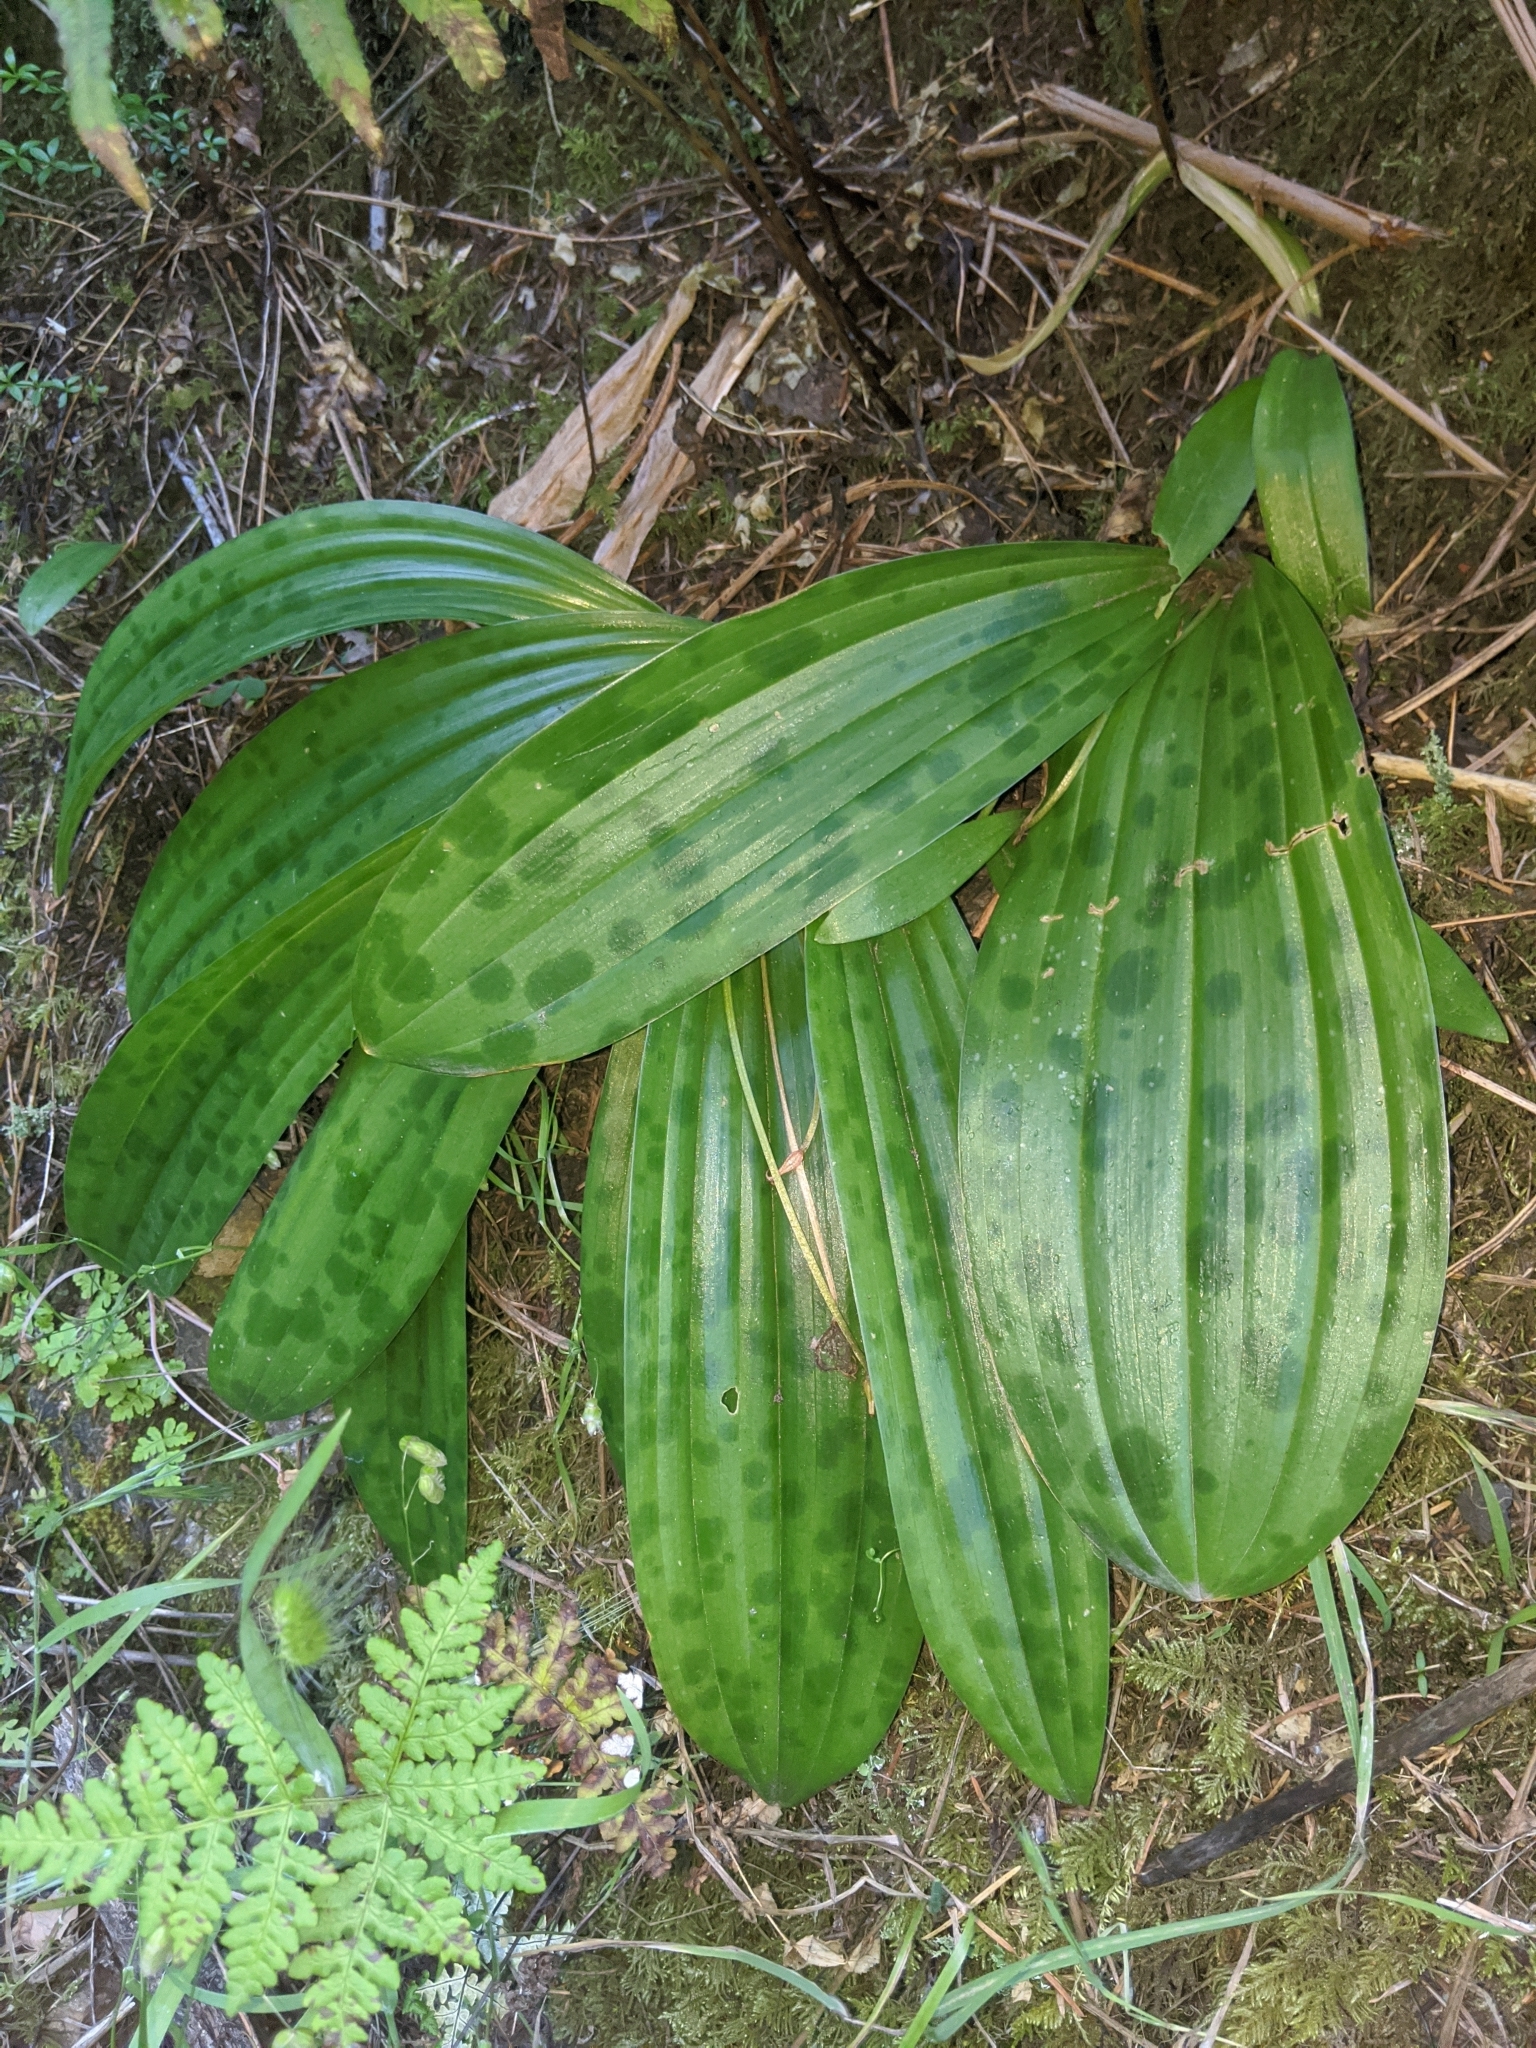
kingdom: Plantae
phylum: Tracheophyta
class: Liliopsida
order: Liliales
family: Liliaceae
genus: Scoliopus
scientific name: Scoliopus bigelovii
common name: Foetid adder's-tongue
